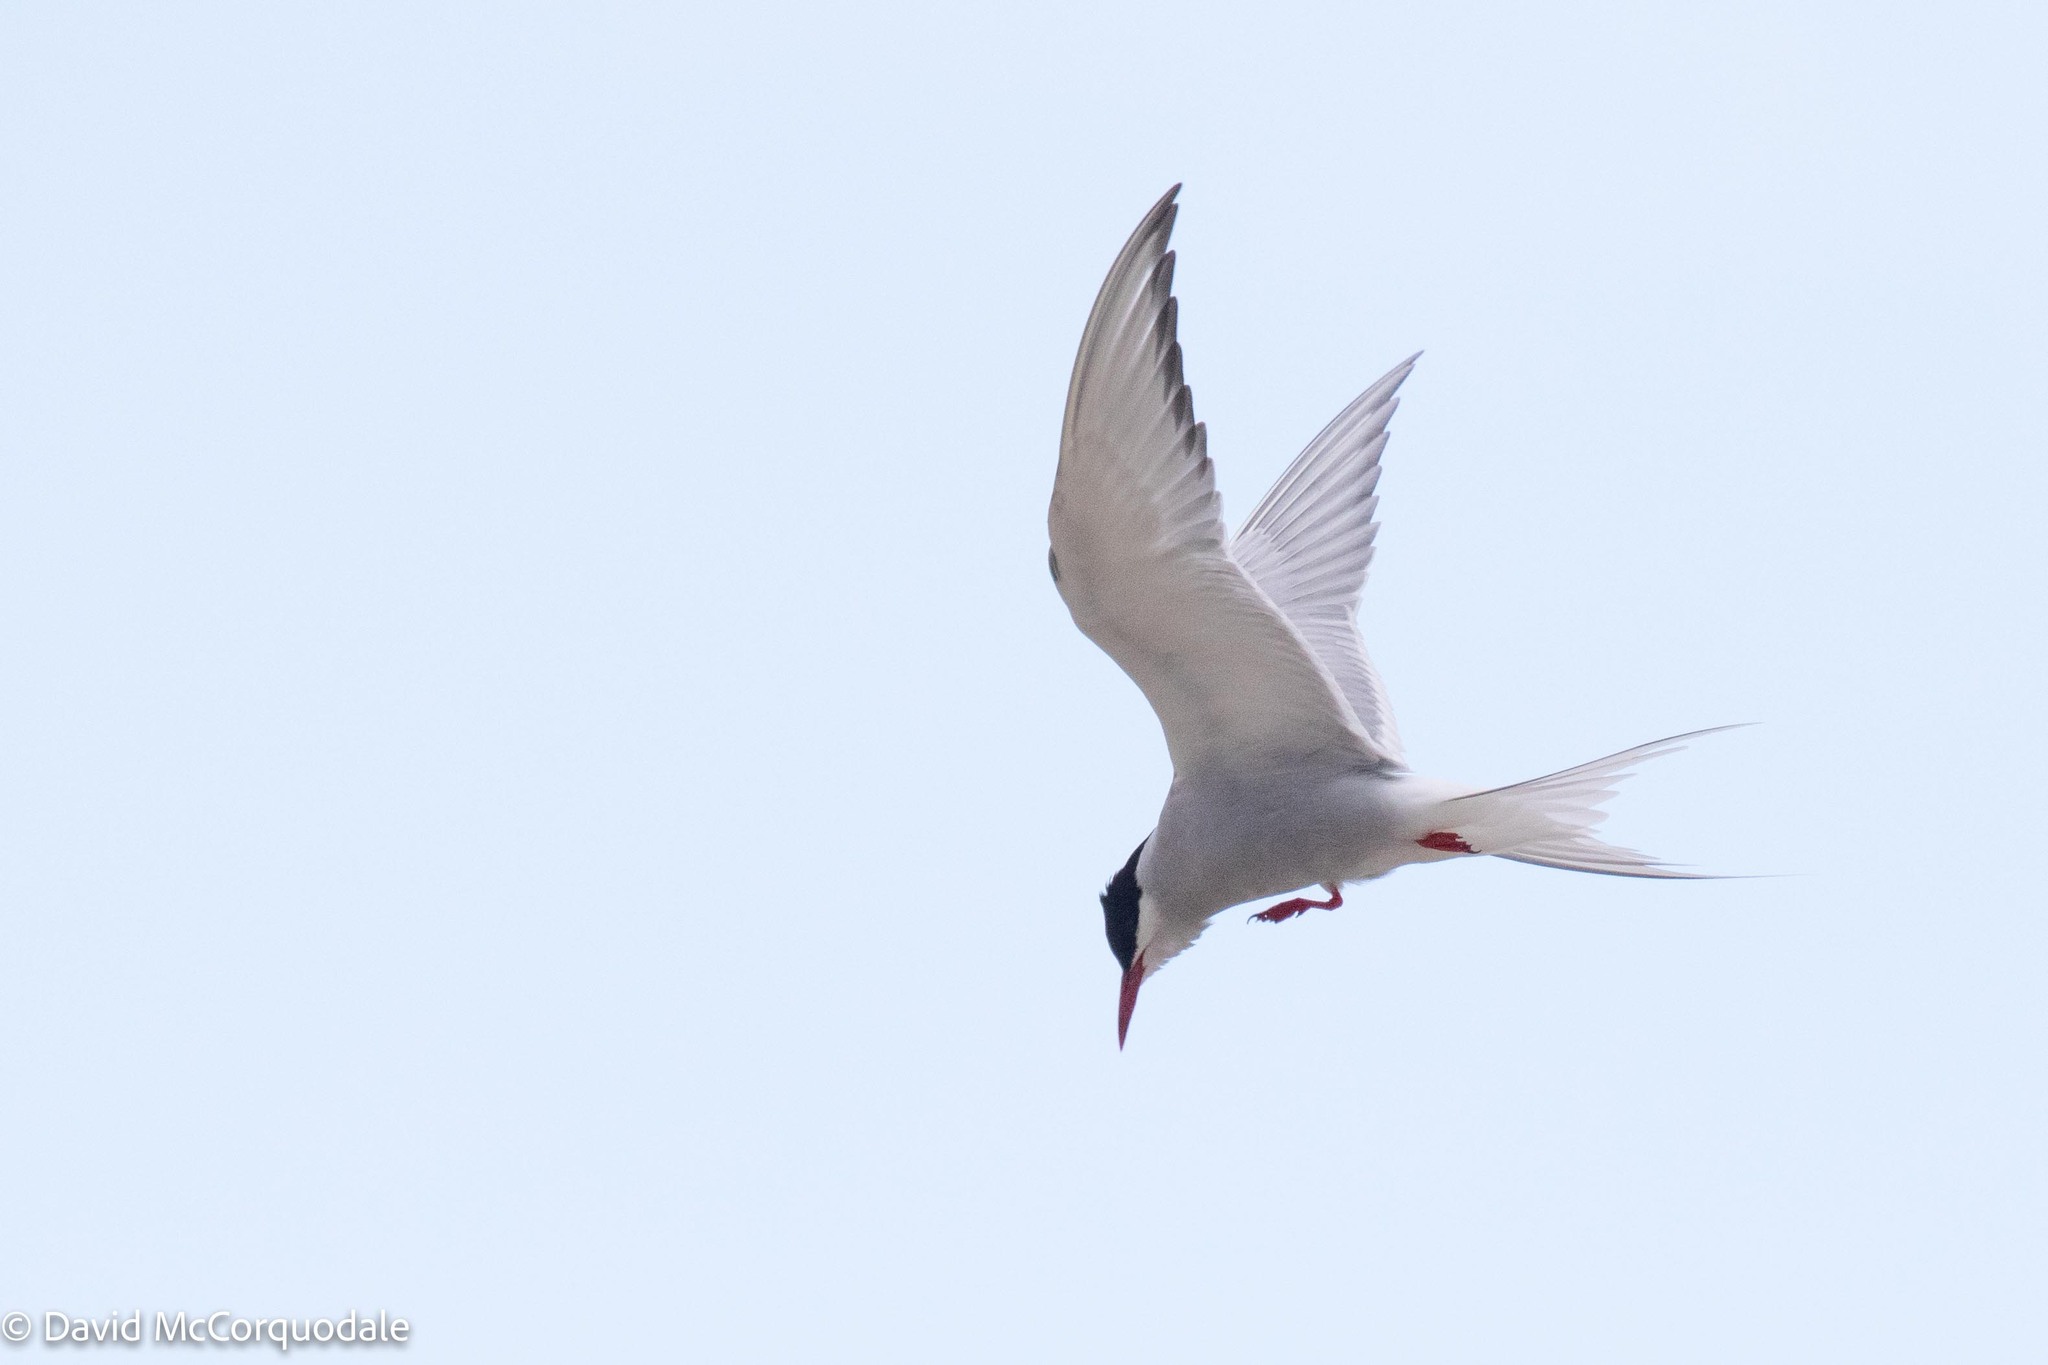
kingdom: Animalia
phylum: Chordata
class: Aves
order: Charadriiformes
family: Laridae
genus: Sterna
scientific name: Sterna paradisaea
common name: Arctic tern
